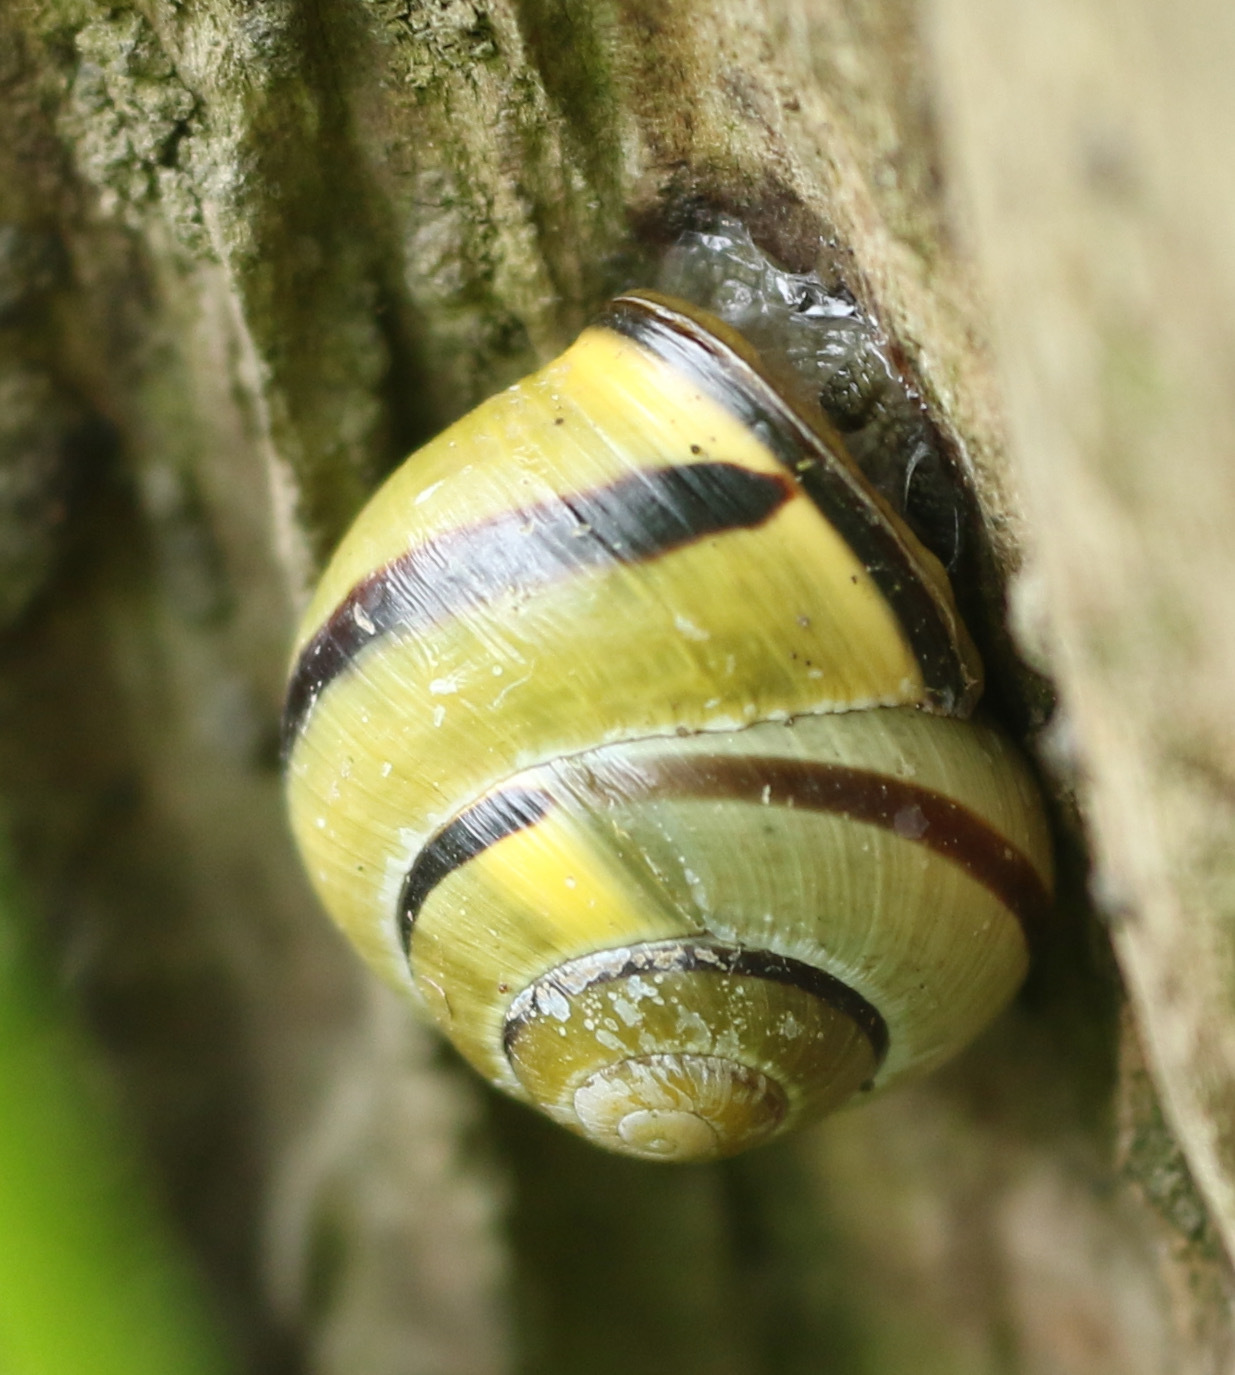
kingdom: Animalia
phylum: Mollusca
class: Gastropoda
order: Stylommatophora
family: Helicidae
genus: Cepaea
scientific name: Cepaea nemoralis
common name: Grovesnail
